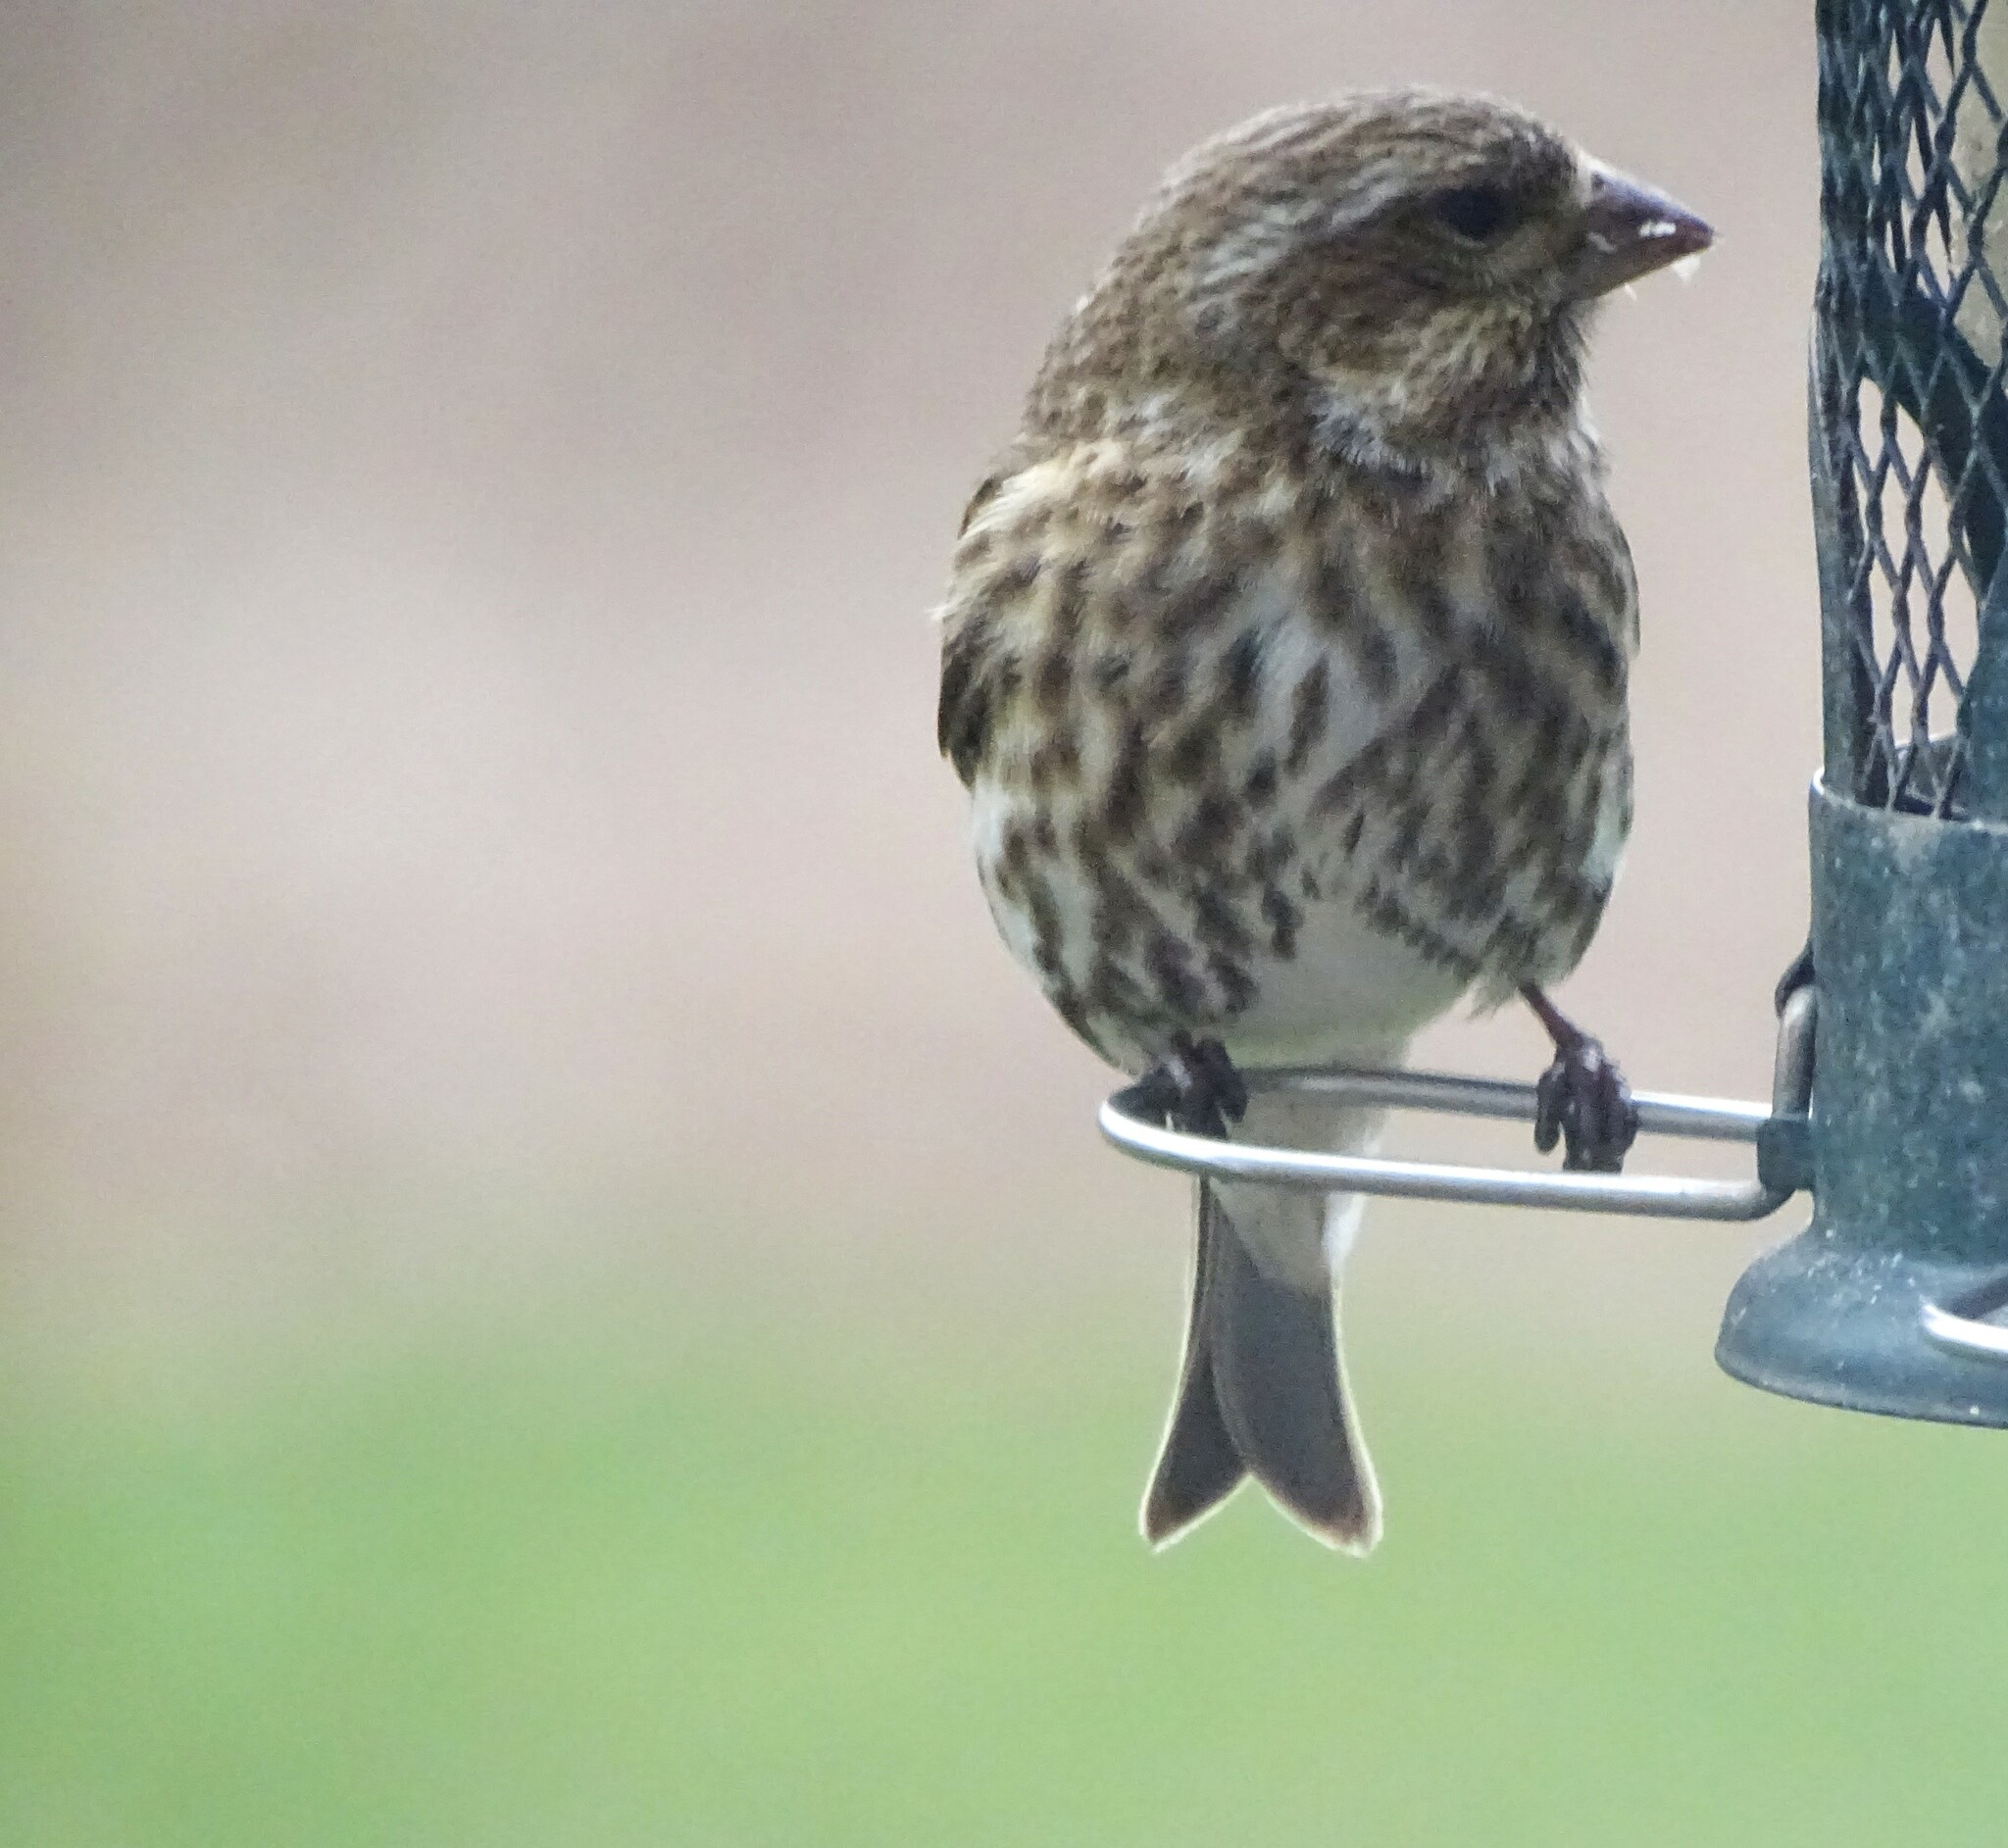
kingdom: Animalia
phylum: Chordata
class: Aves
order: Passeriformes
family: Fringillidae
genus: Haemorhous
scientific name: Haemorhous purpureus
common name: Purple finch
